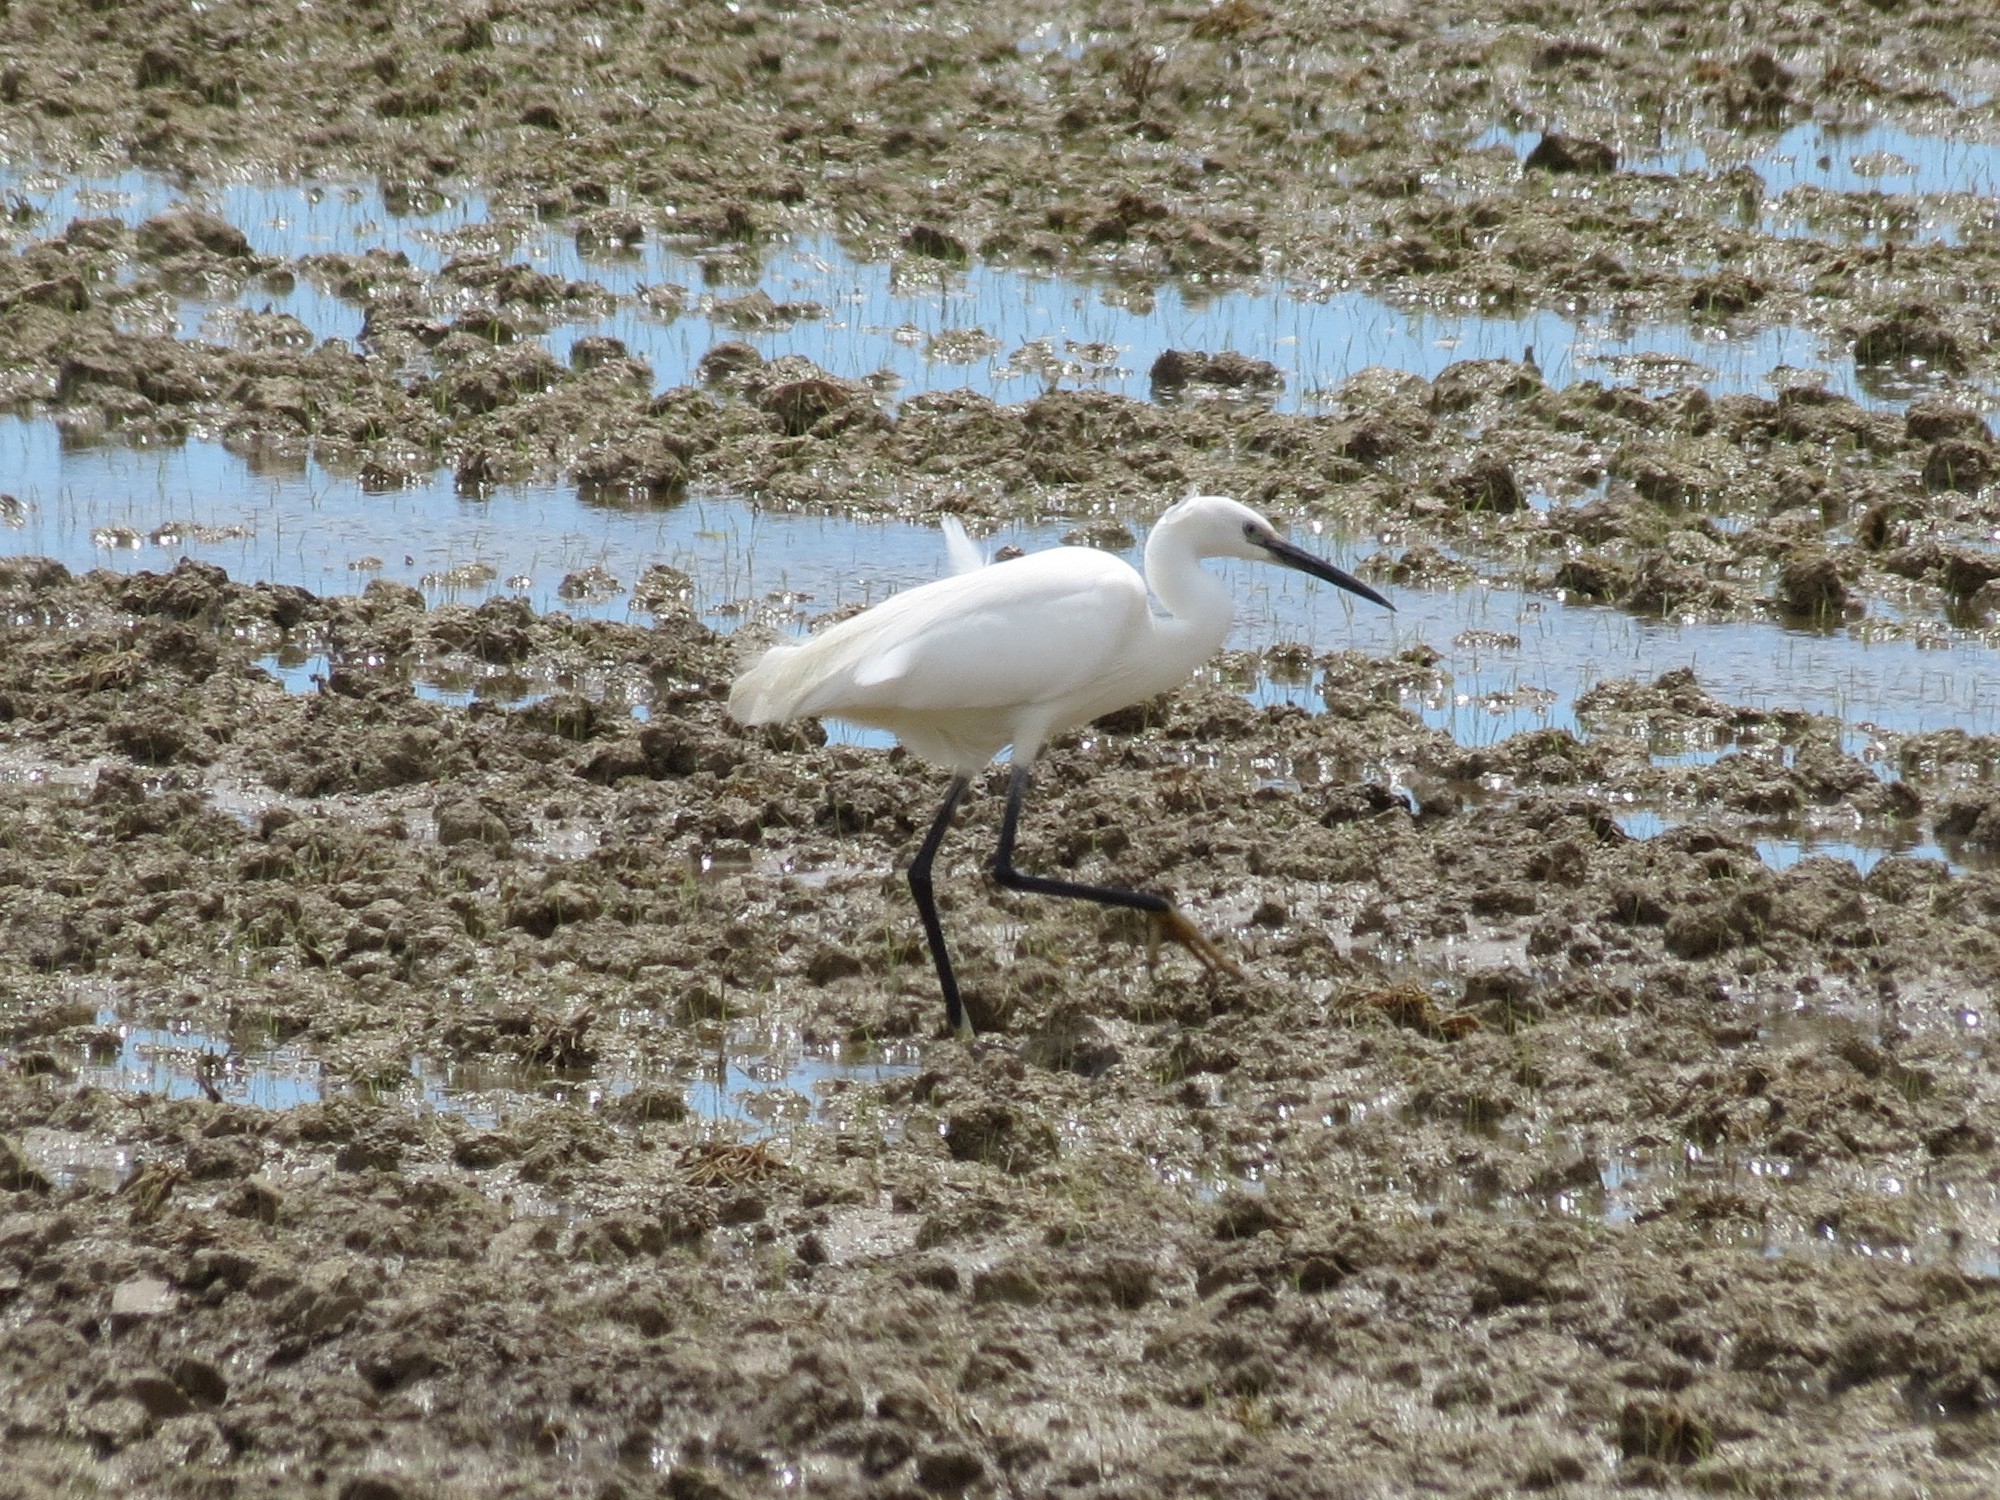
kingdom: Animalia
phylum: Chordata
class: Aves
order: Pelecaniformes
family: Ardeidae
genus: Egretta
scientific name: Egretta garzetta
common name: Little egret
